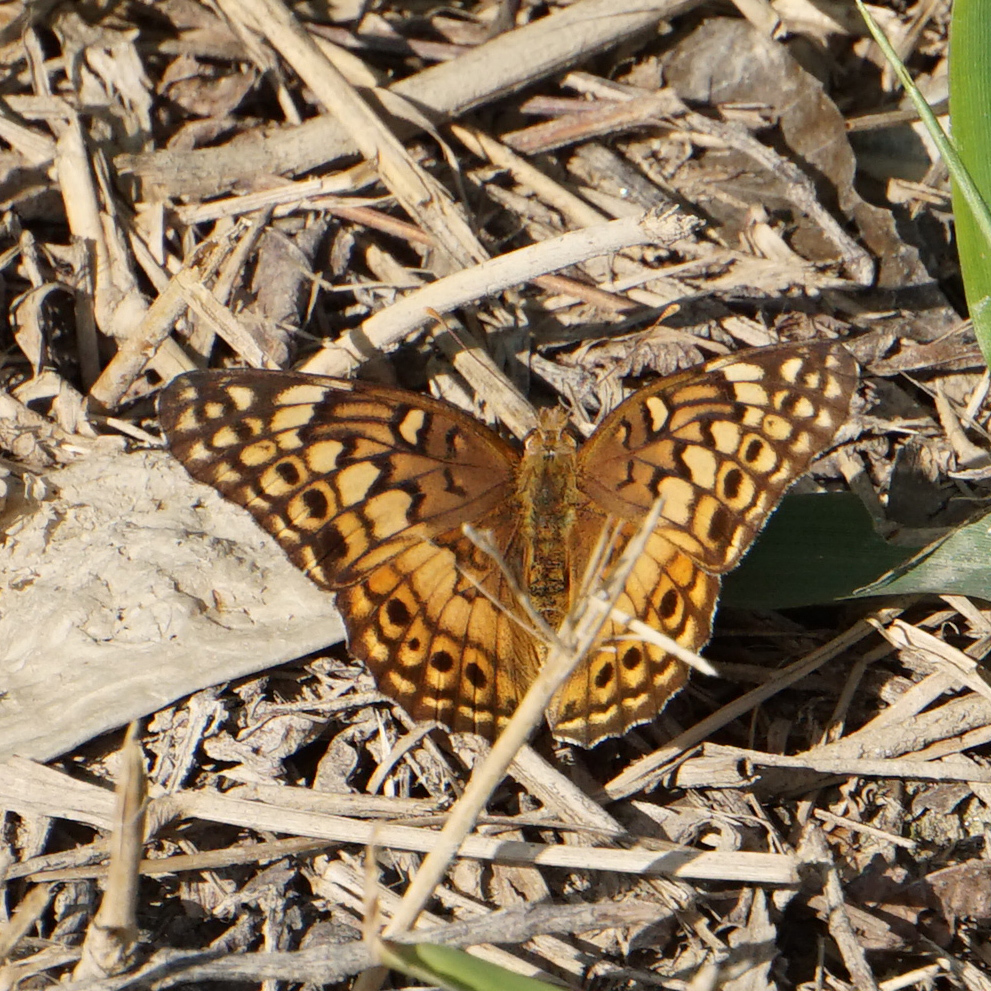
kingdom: Animalia
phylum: Arthropoda
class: Insecta
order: Lepidoptera
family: Nymphalidae
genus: Euptoieta
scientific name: Euptoieta claudia
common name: Variegated fritillary
